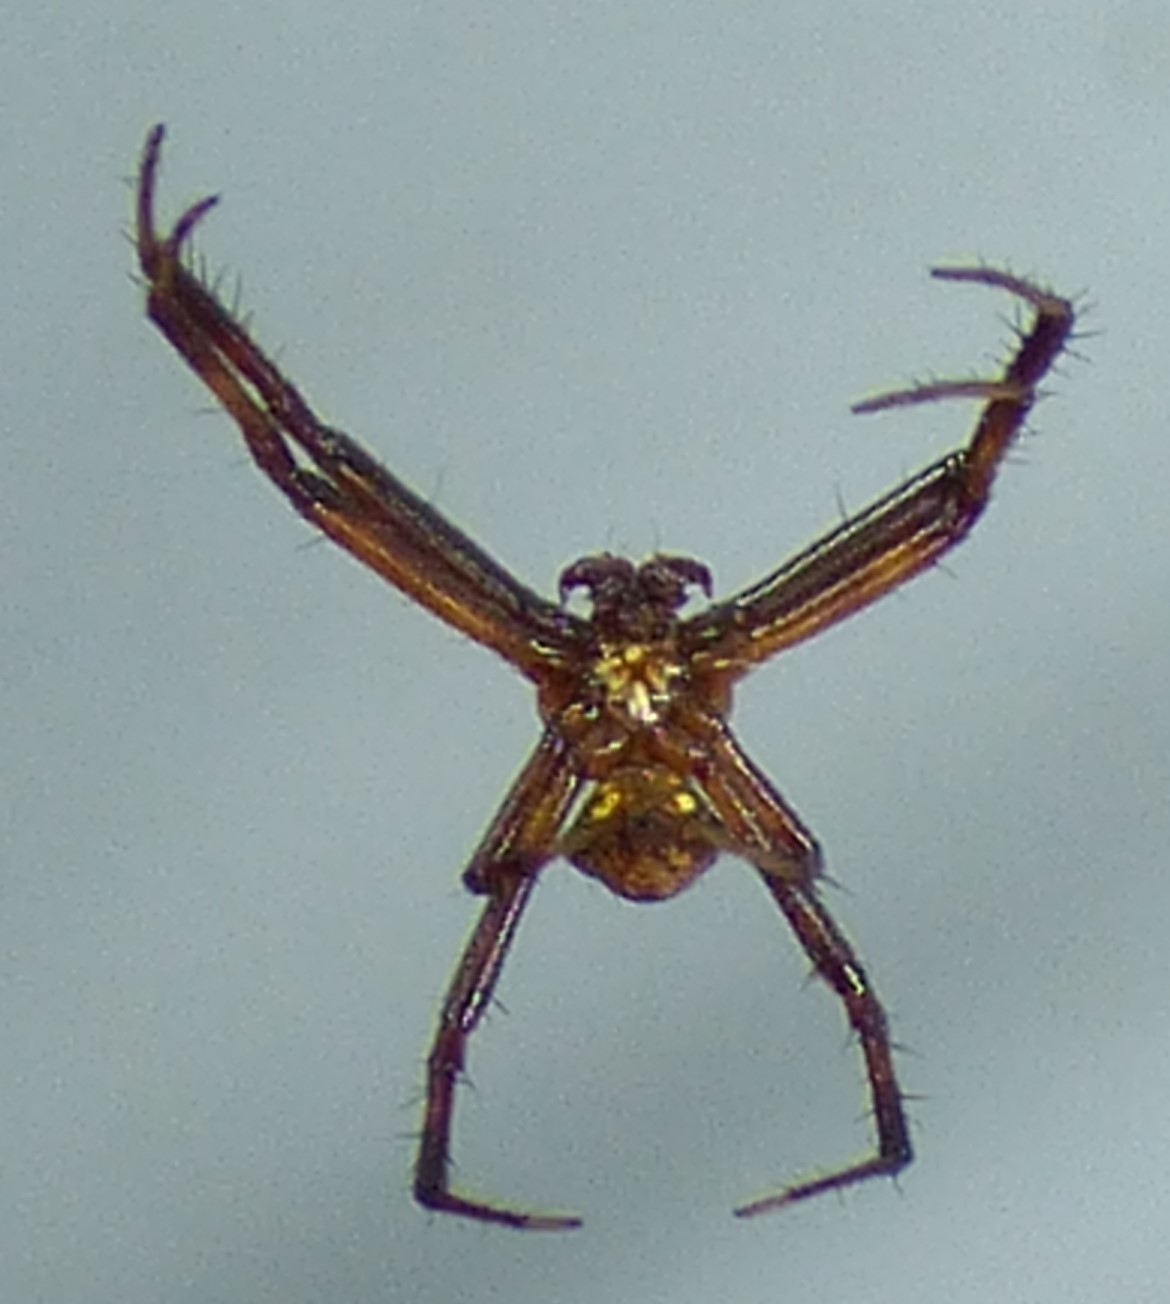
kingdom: Animalia
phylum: Arthropoda
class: Arachnida
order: Araneae
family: Araneidae
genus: Gea
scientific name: Gea heptagon
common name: Orb weavers
